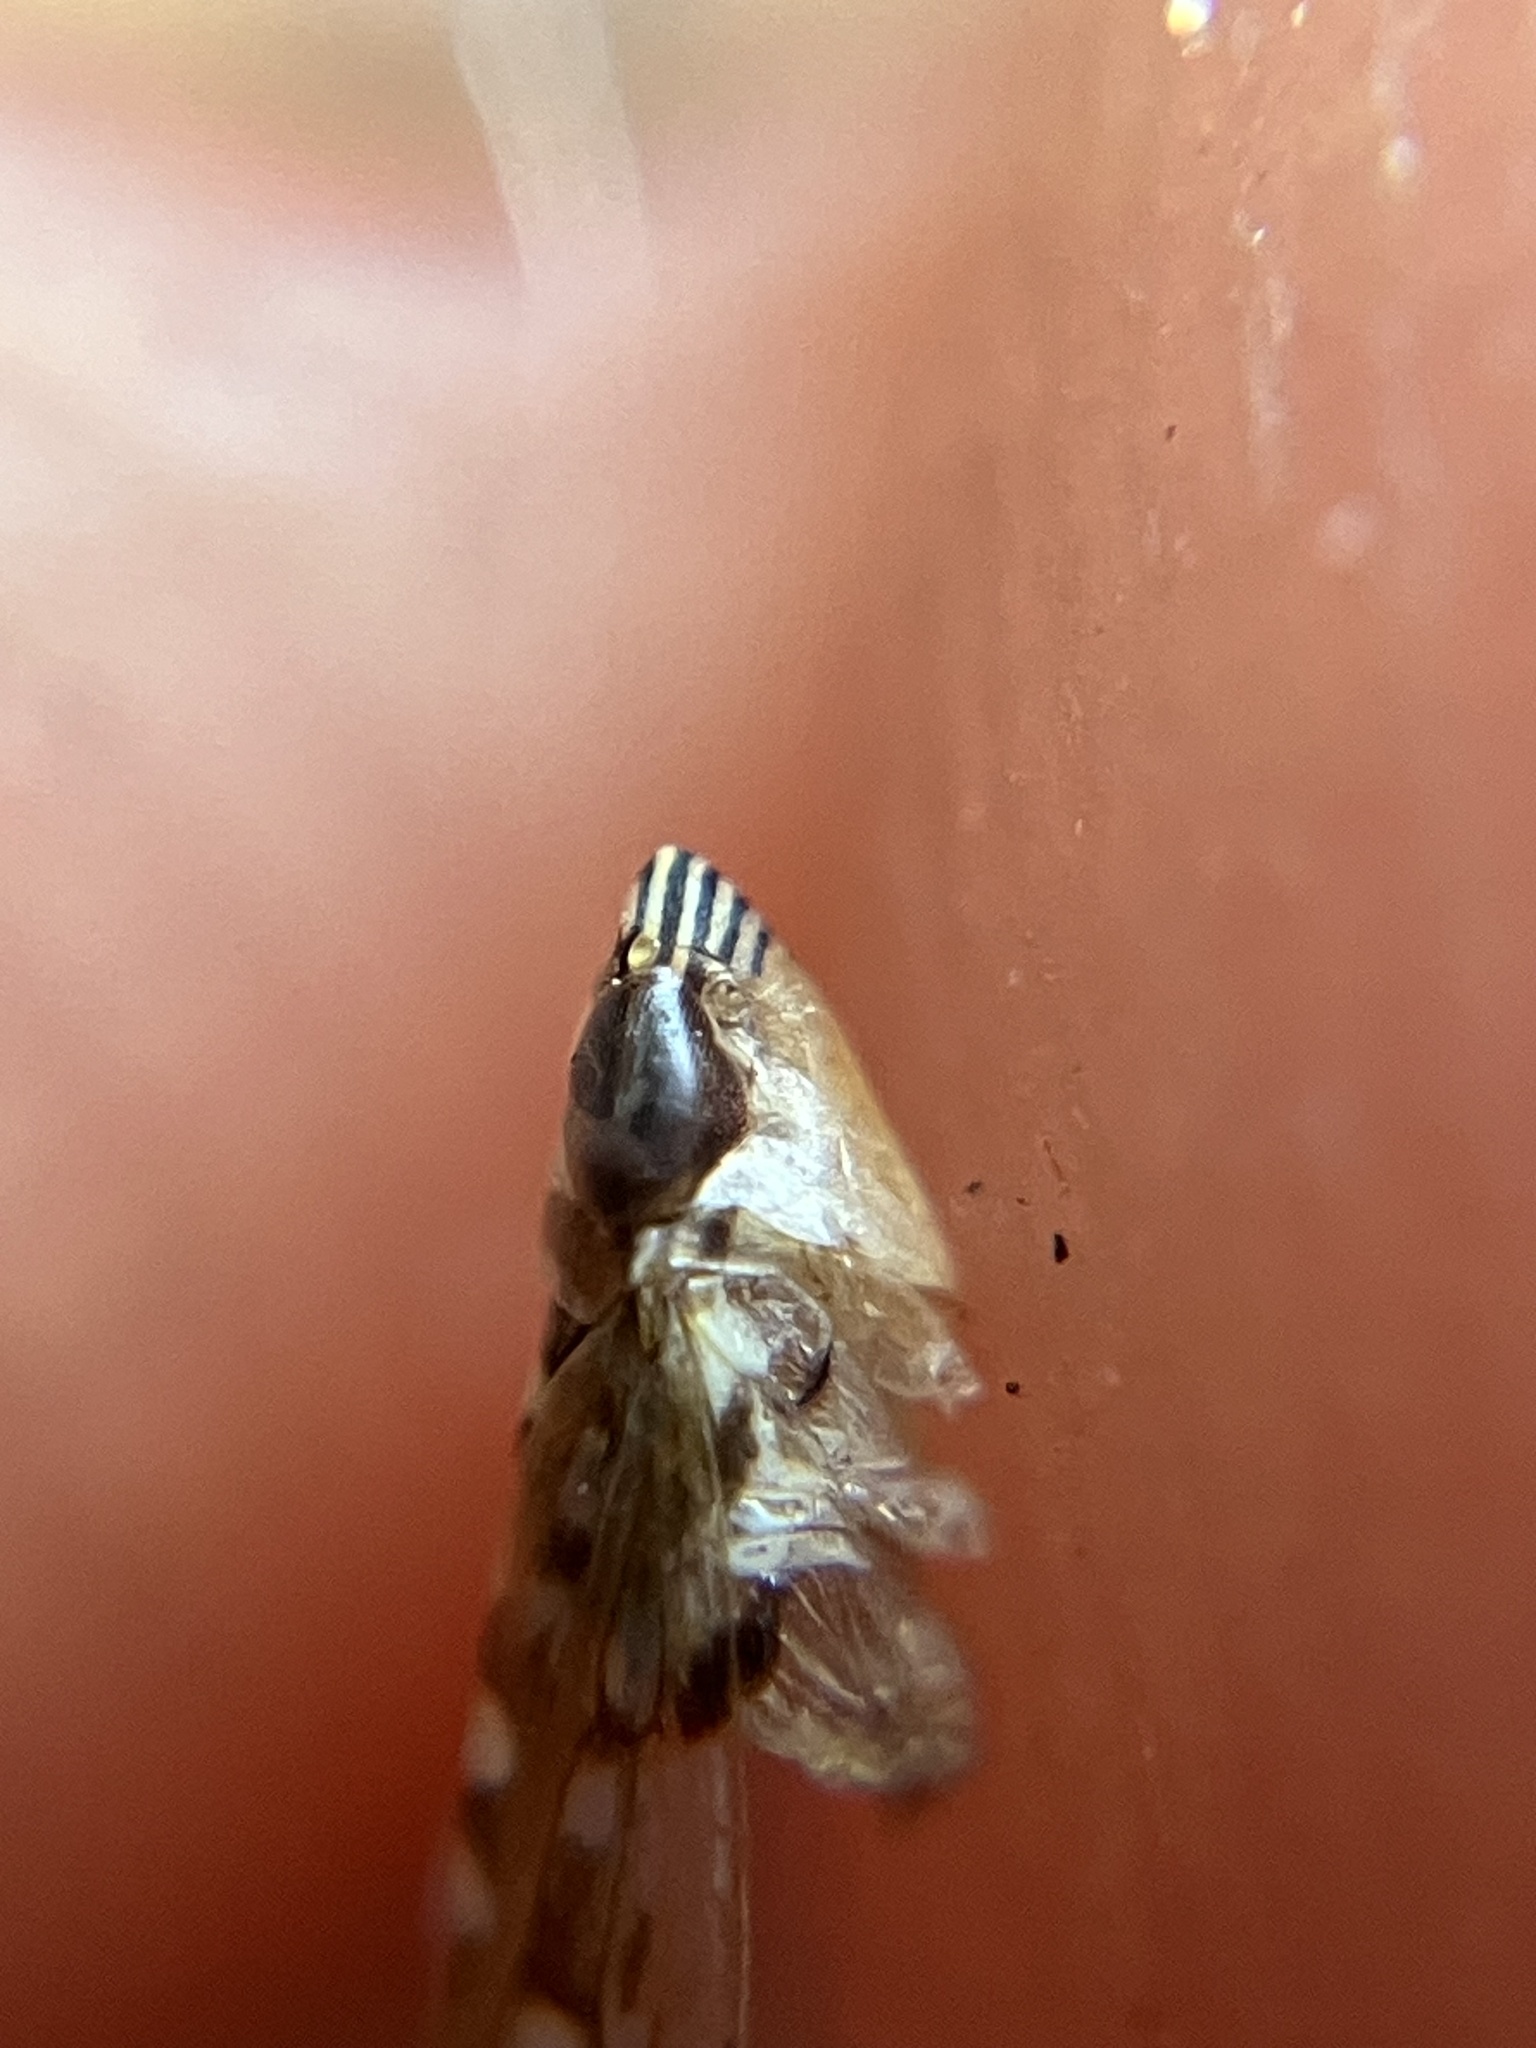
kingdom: Animalia
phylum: Arthropoda
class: Insecta
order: Hemiptera
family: Cicadellidae
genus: Scaphoideus
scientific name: Scaphoideus sculptus
